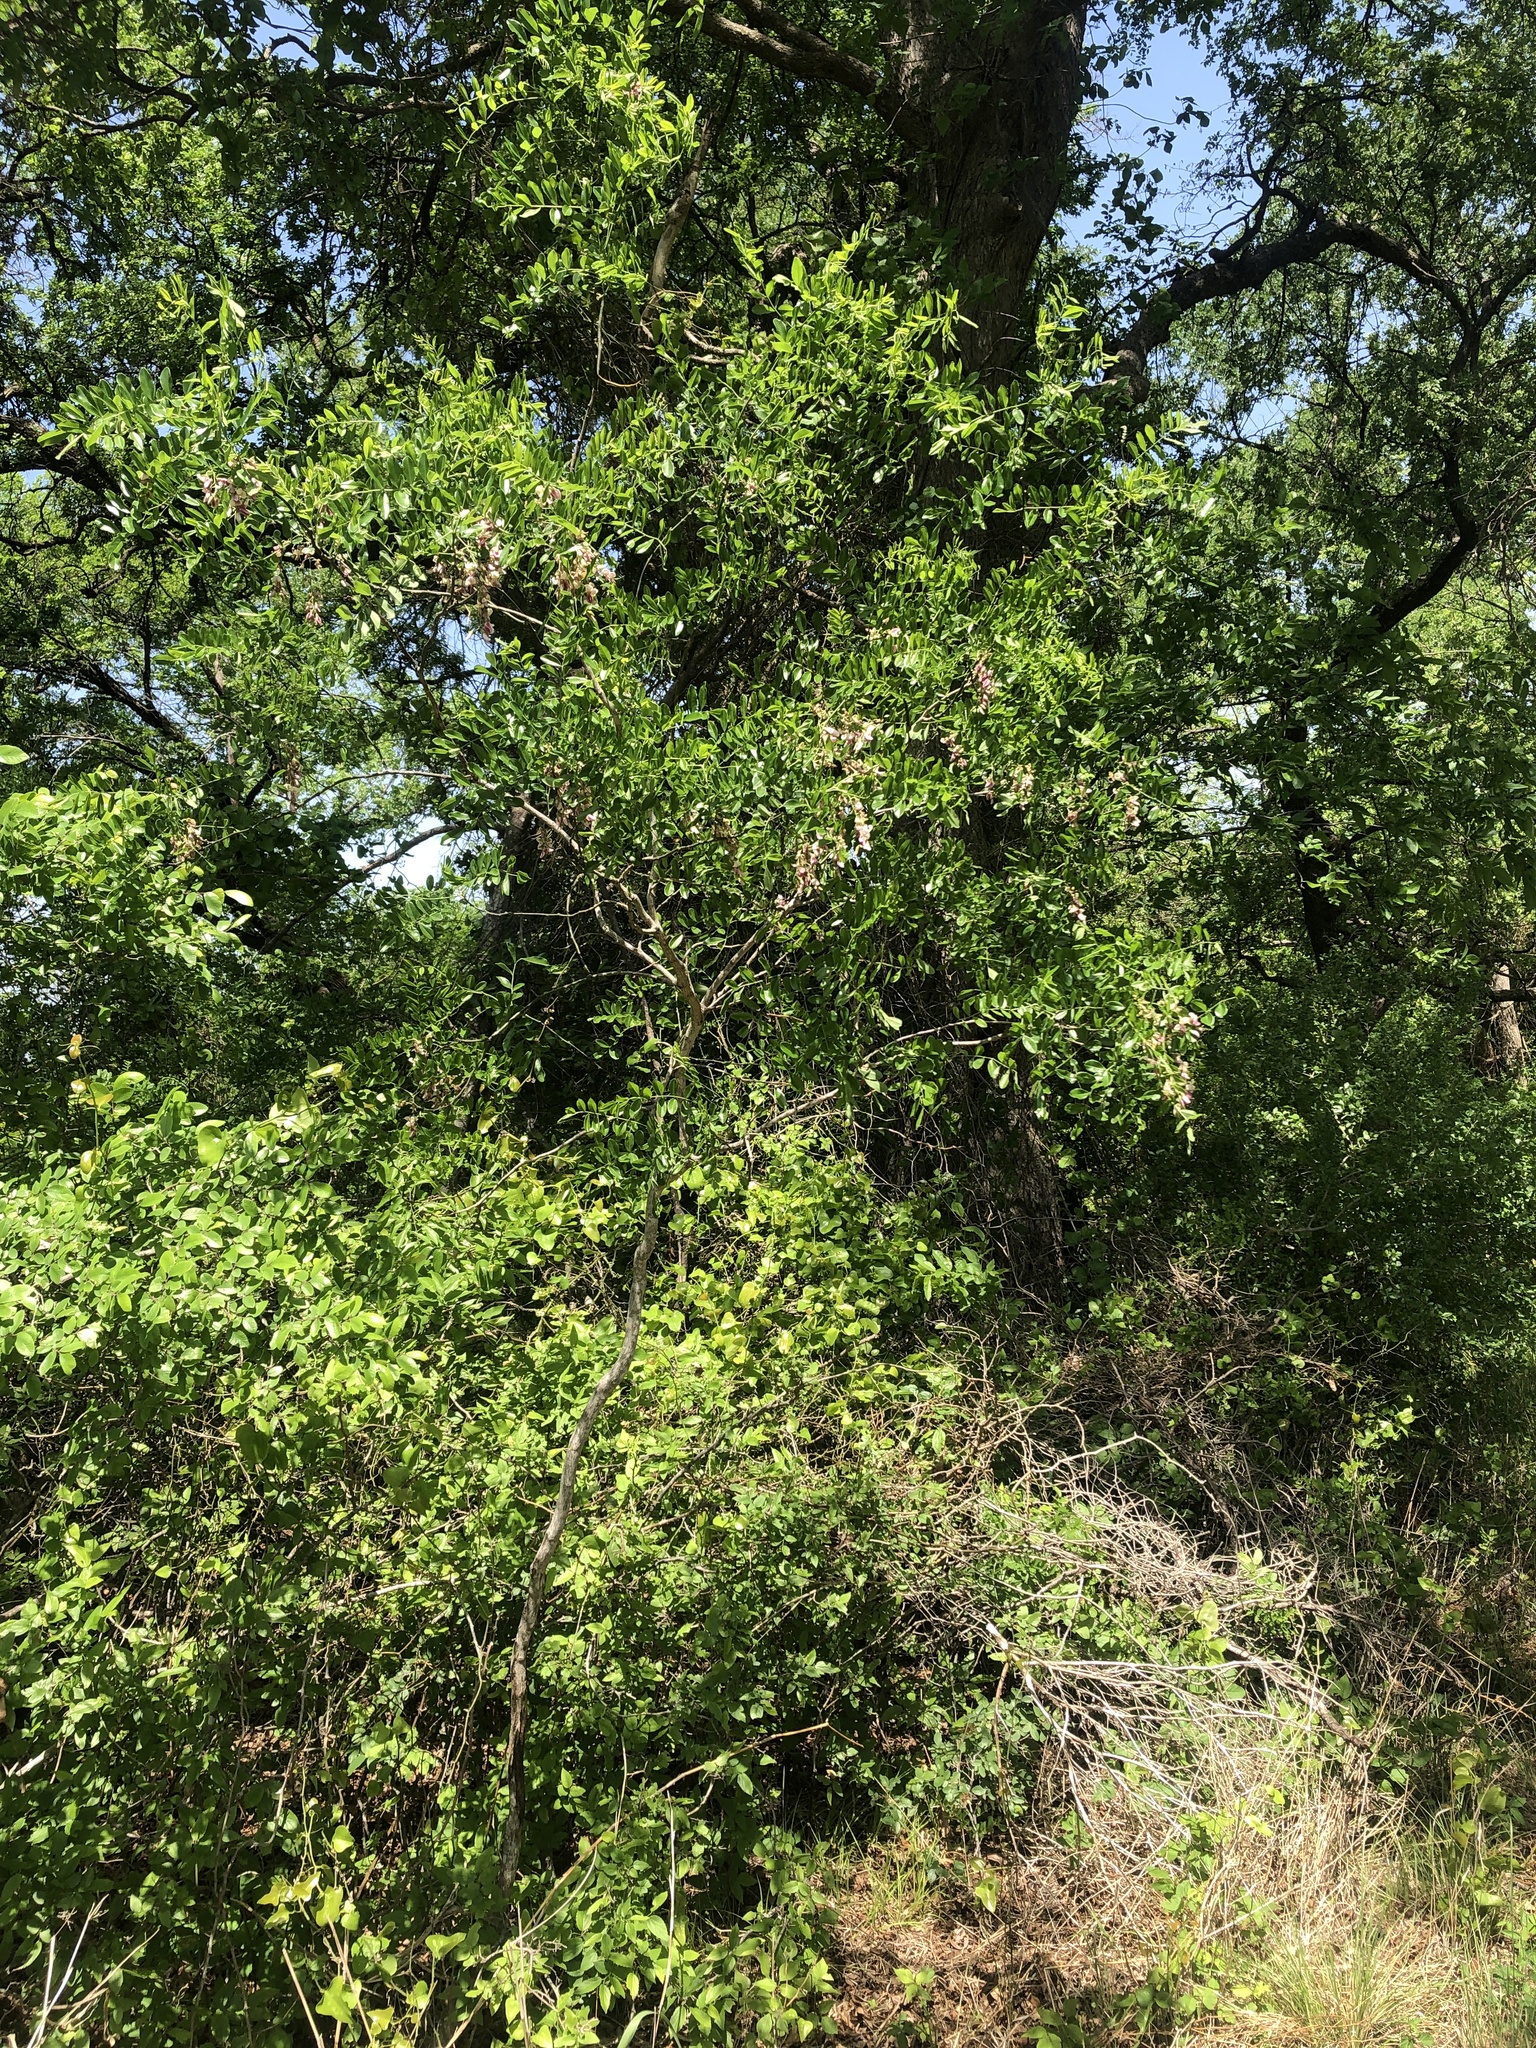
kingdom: Plantae
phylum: Tracheophyta
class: Magnoliopsida
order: Fabales
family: Fabaceae
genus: Styphnolobium
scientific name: Styphnolobium affine
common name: Texas sophora
